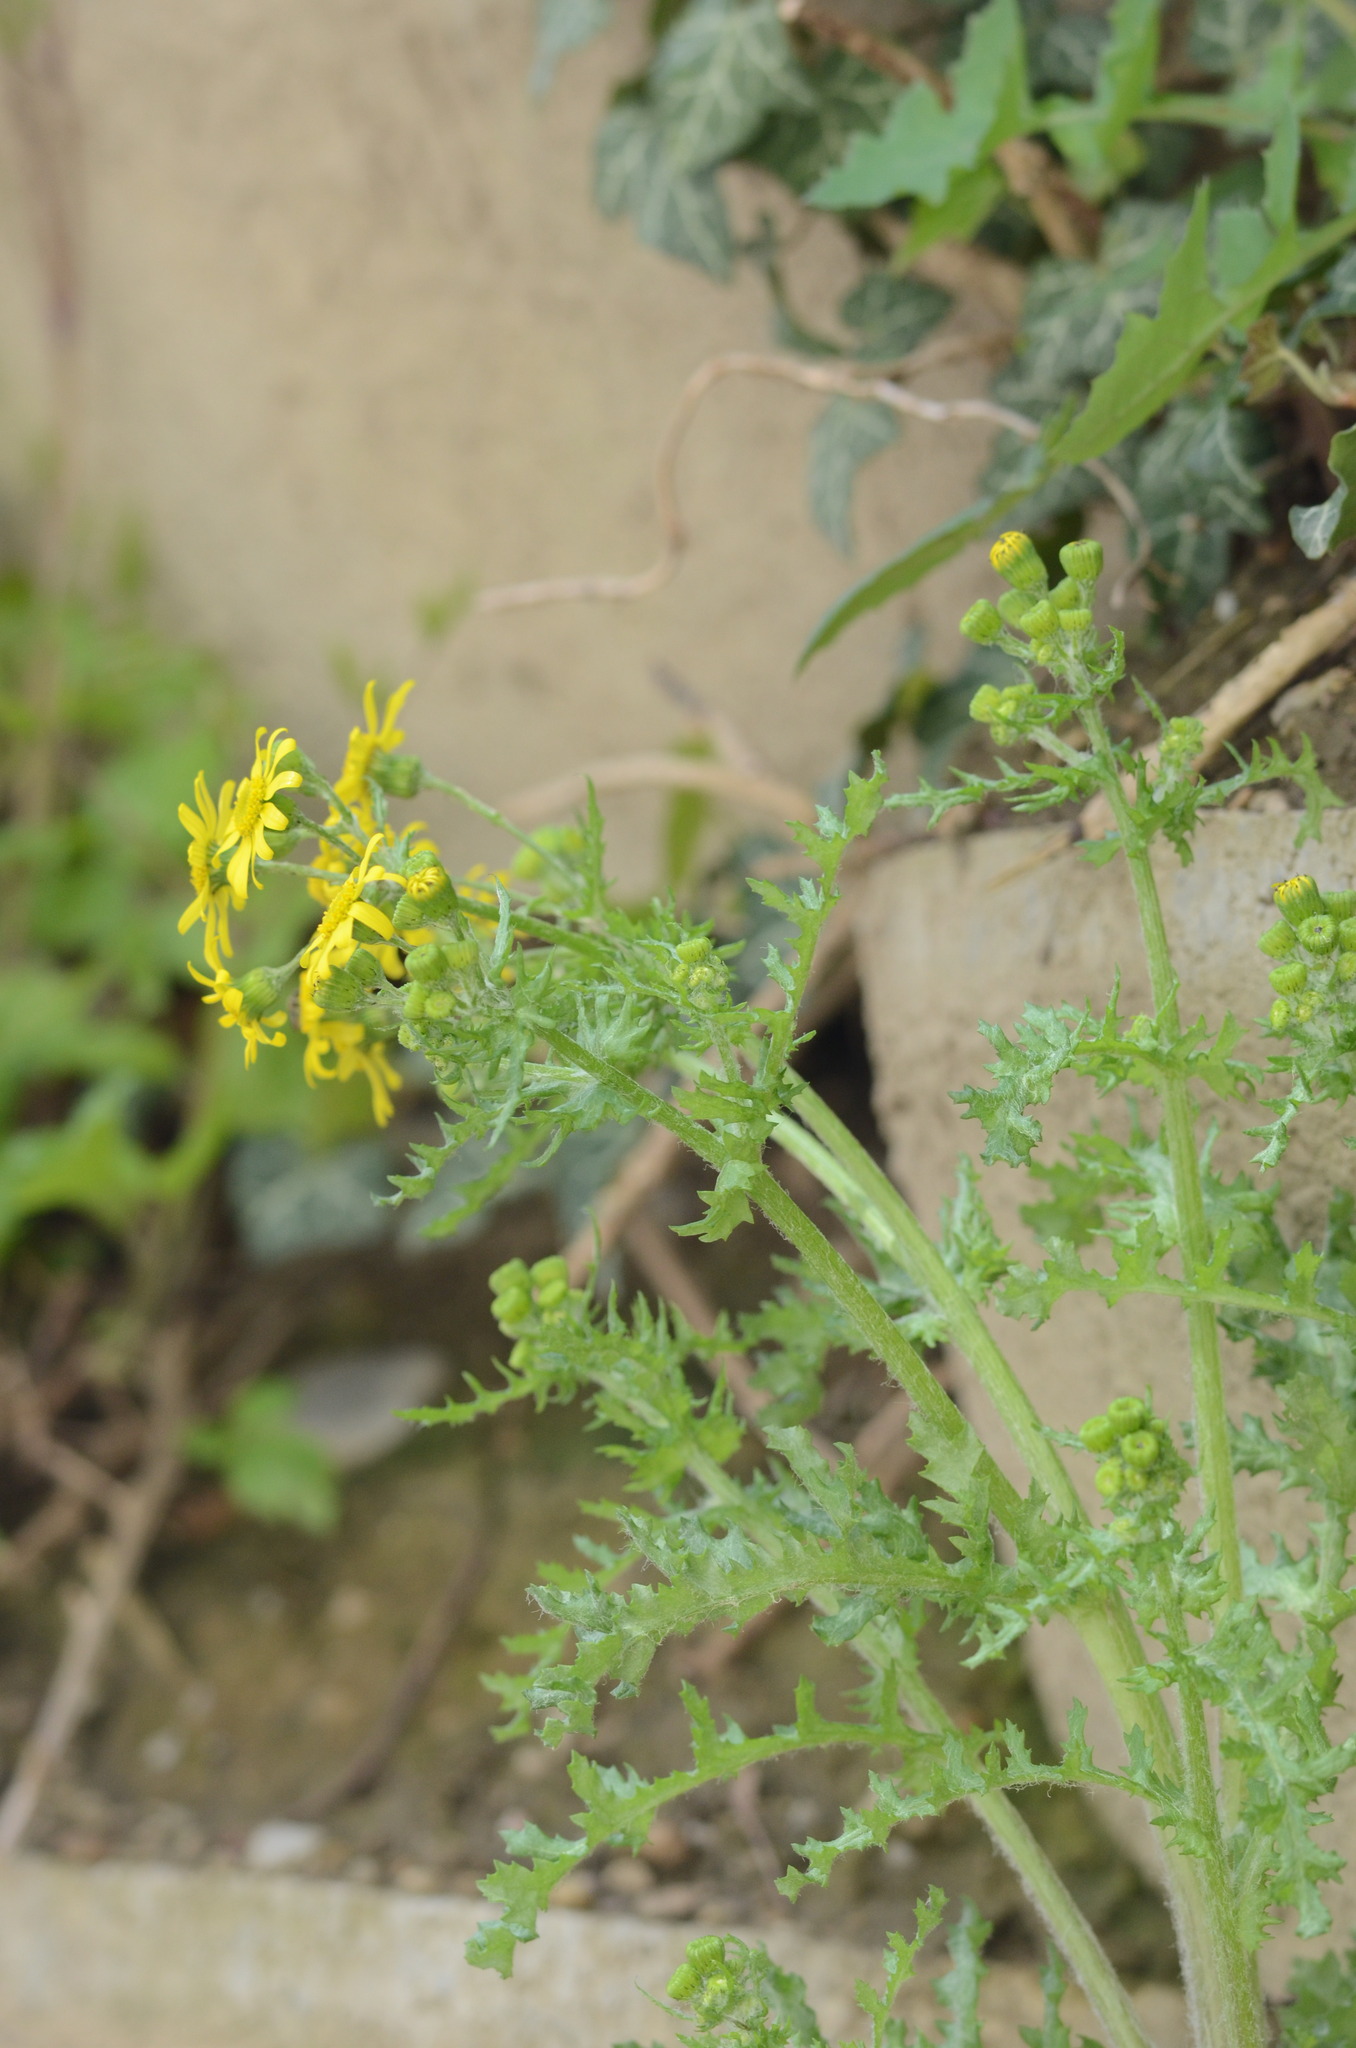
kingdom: Plantae
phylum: Tracheophyta
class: Magnoliopsida
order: Asterales
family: Asteraceae
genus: Senecio
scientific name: Senecio vernalis
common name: Eastern groundsel
